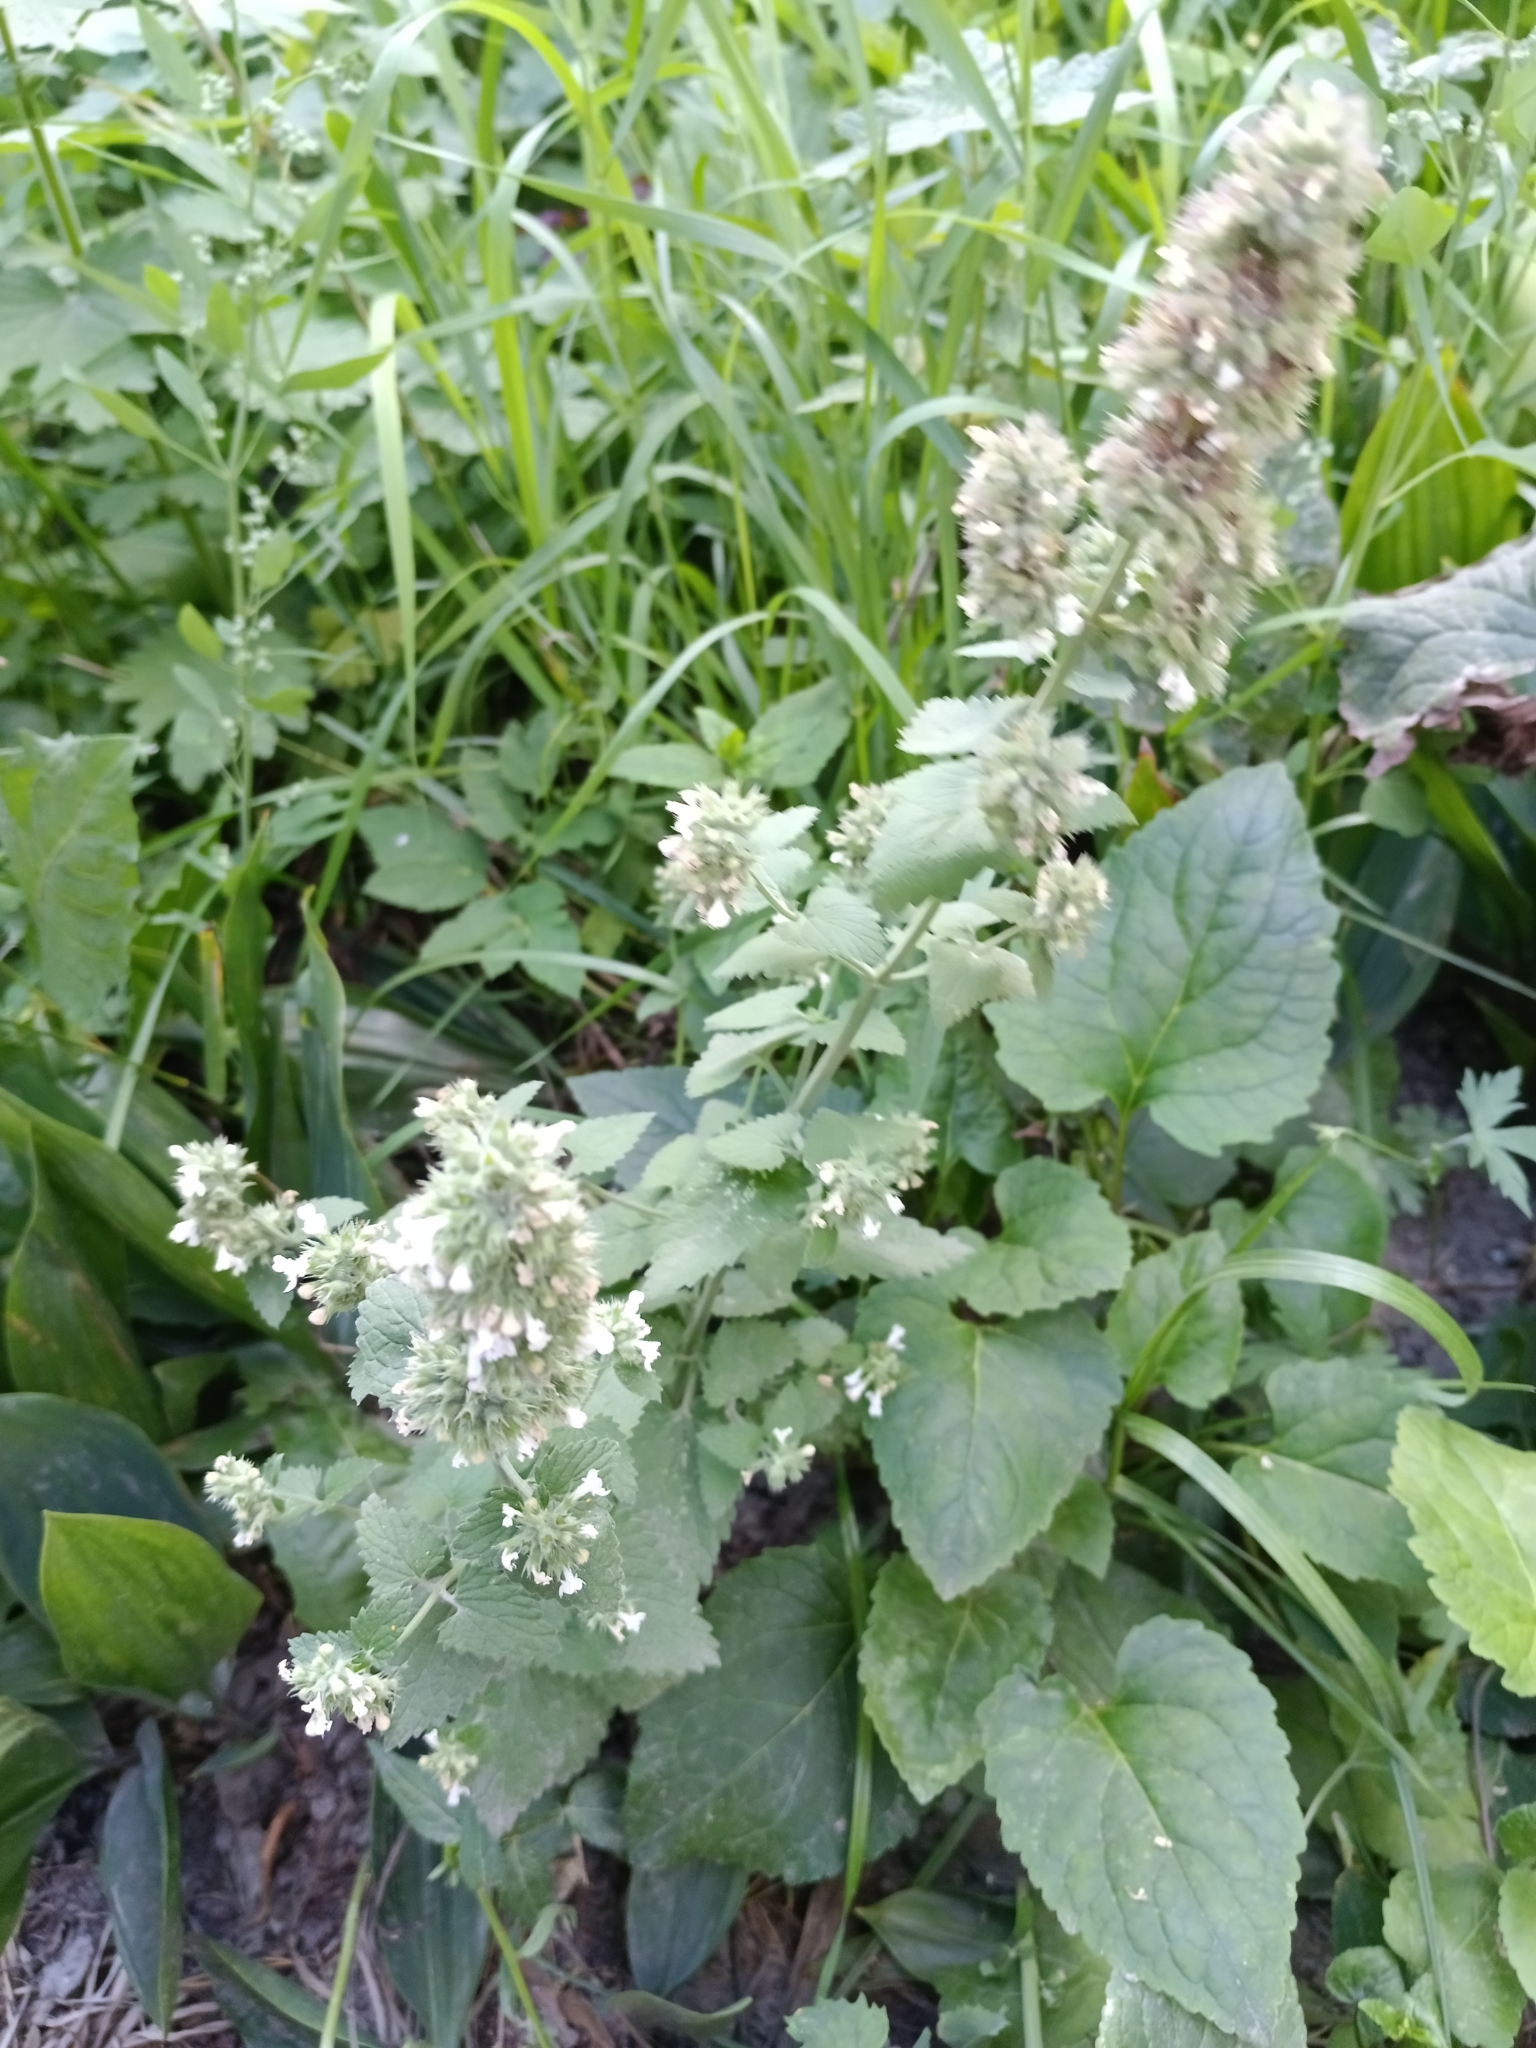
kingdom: Plantae
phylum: Tracheophyta
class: Magnoliopsida
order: Lamiales
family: Lamiaceae
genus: Nepeta
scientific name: Nepeta cataria
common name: Catnip
